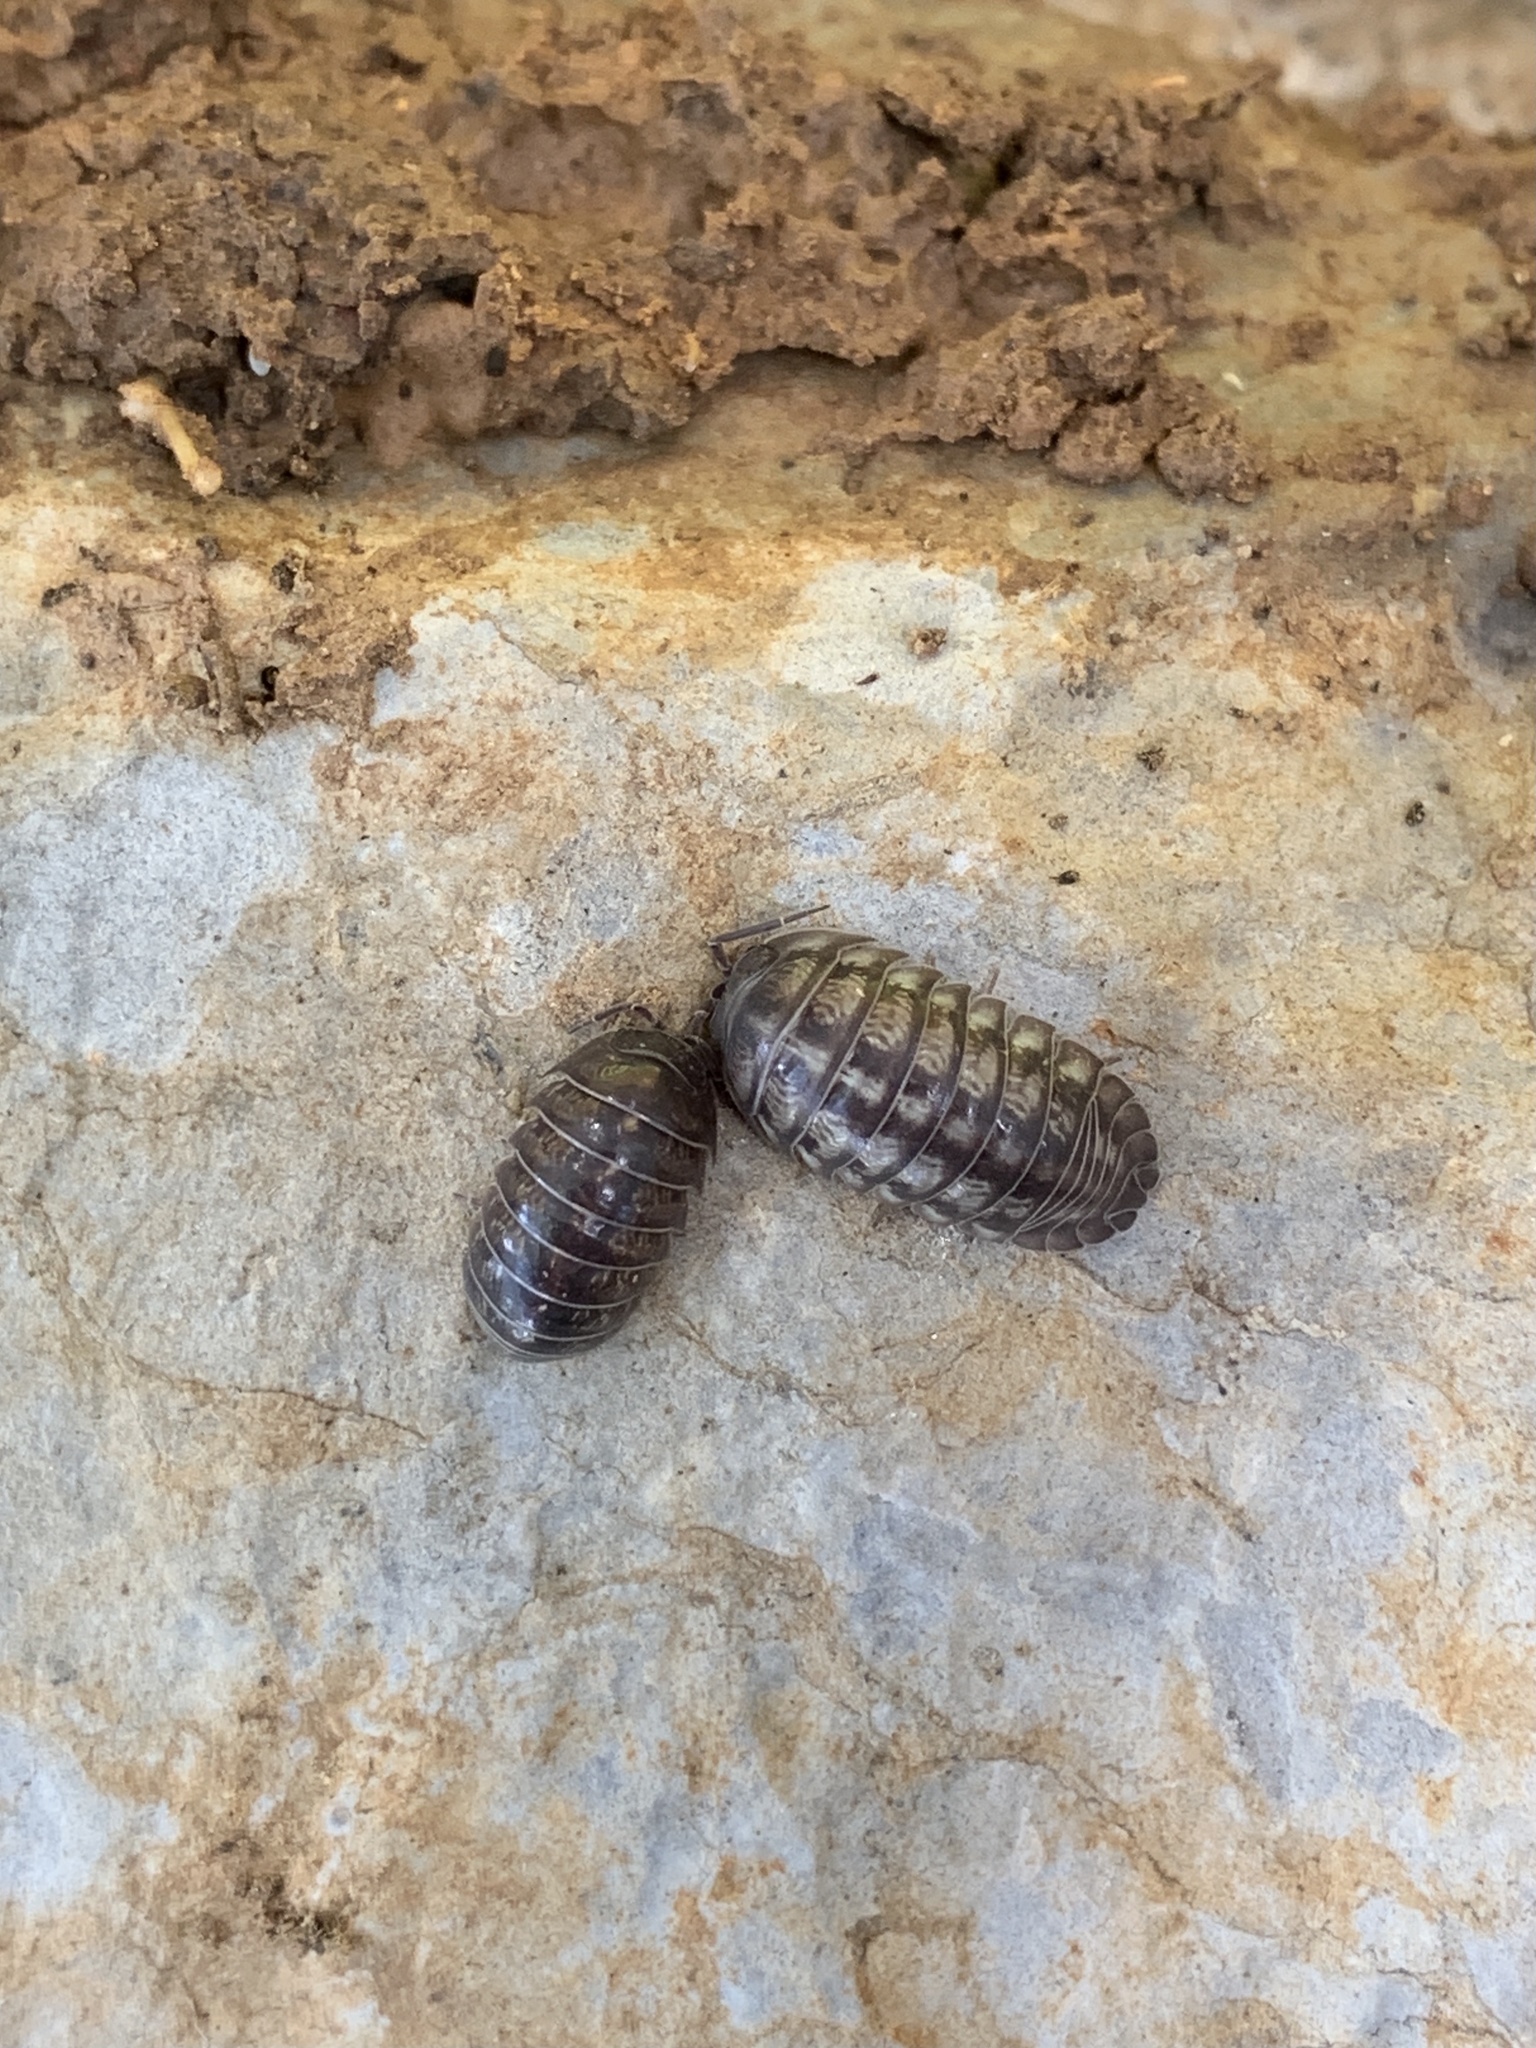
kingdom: Animalia
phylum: Arthropoda
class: Malacostraca
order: Isopoda
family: Armadillidiidae
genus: Armadillidium
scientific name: Armadillidium nasatum
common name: Isopod
